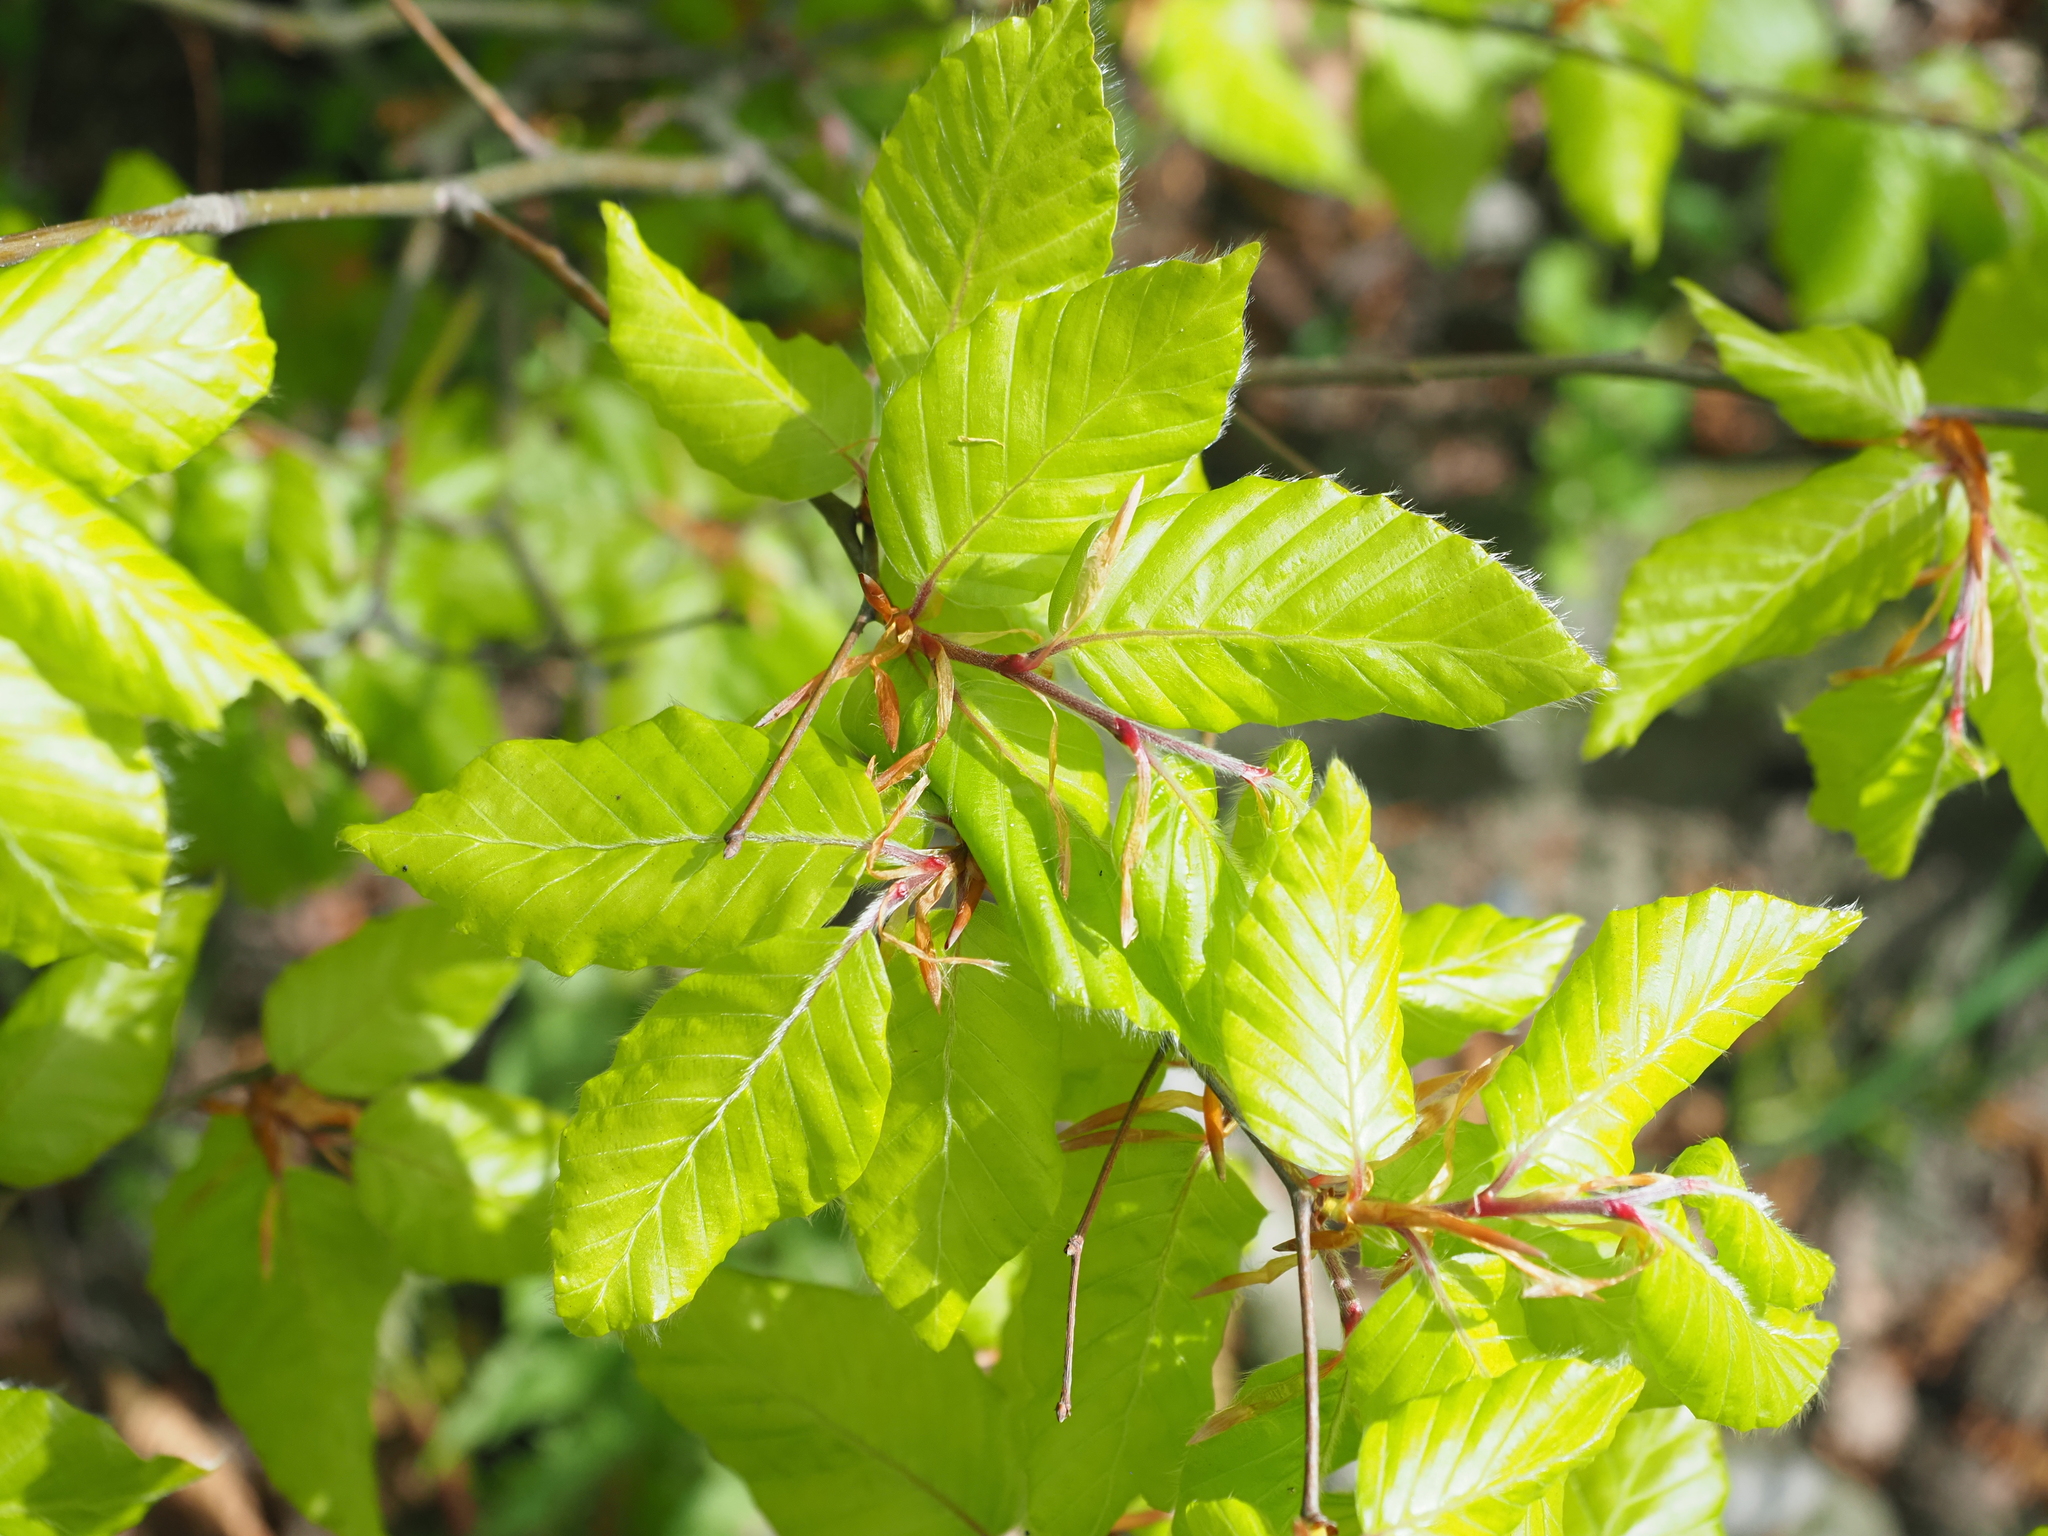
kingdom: Plantae
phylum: Tracheophyta
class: Magnoliopsida
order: Fagales
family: Fagaceae
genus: Fagus
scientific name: Fagus sylvatica
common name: Beech
